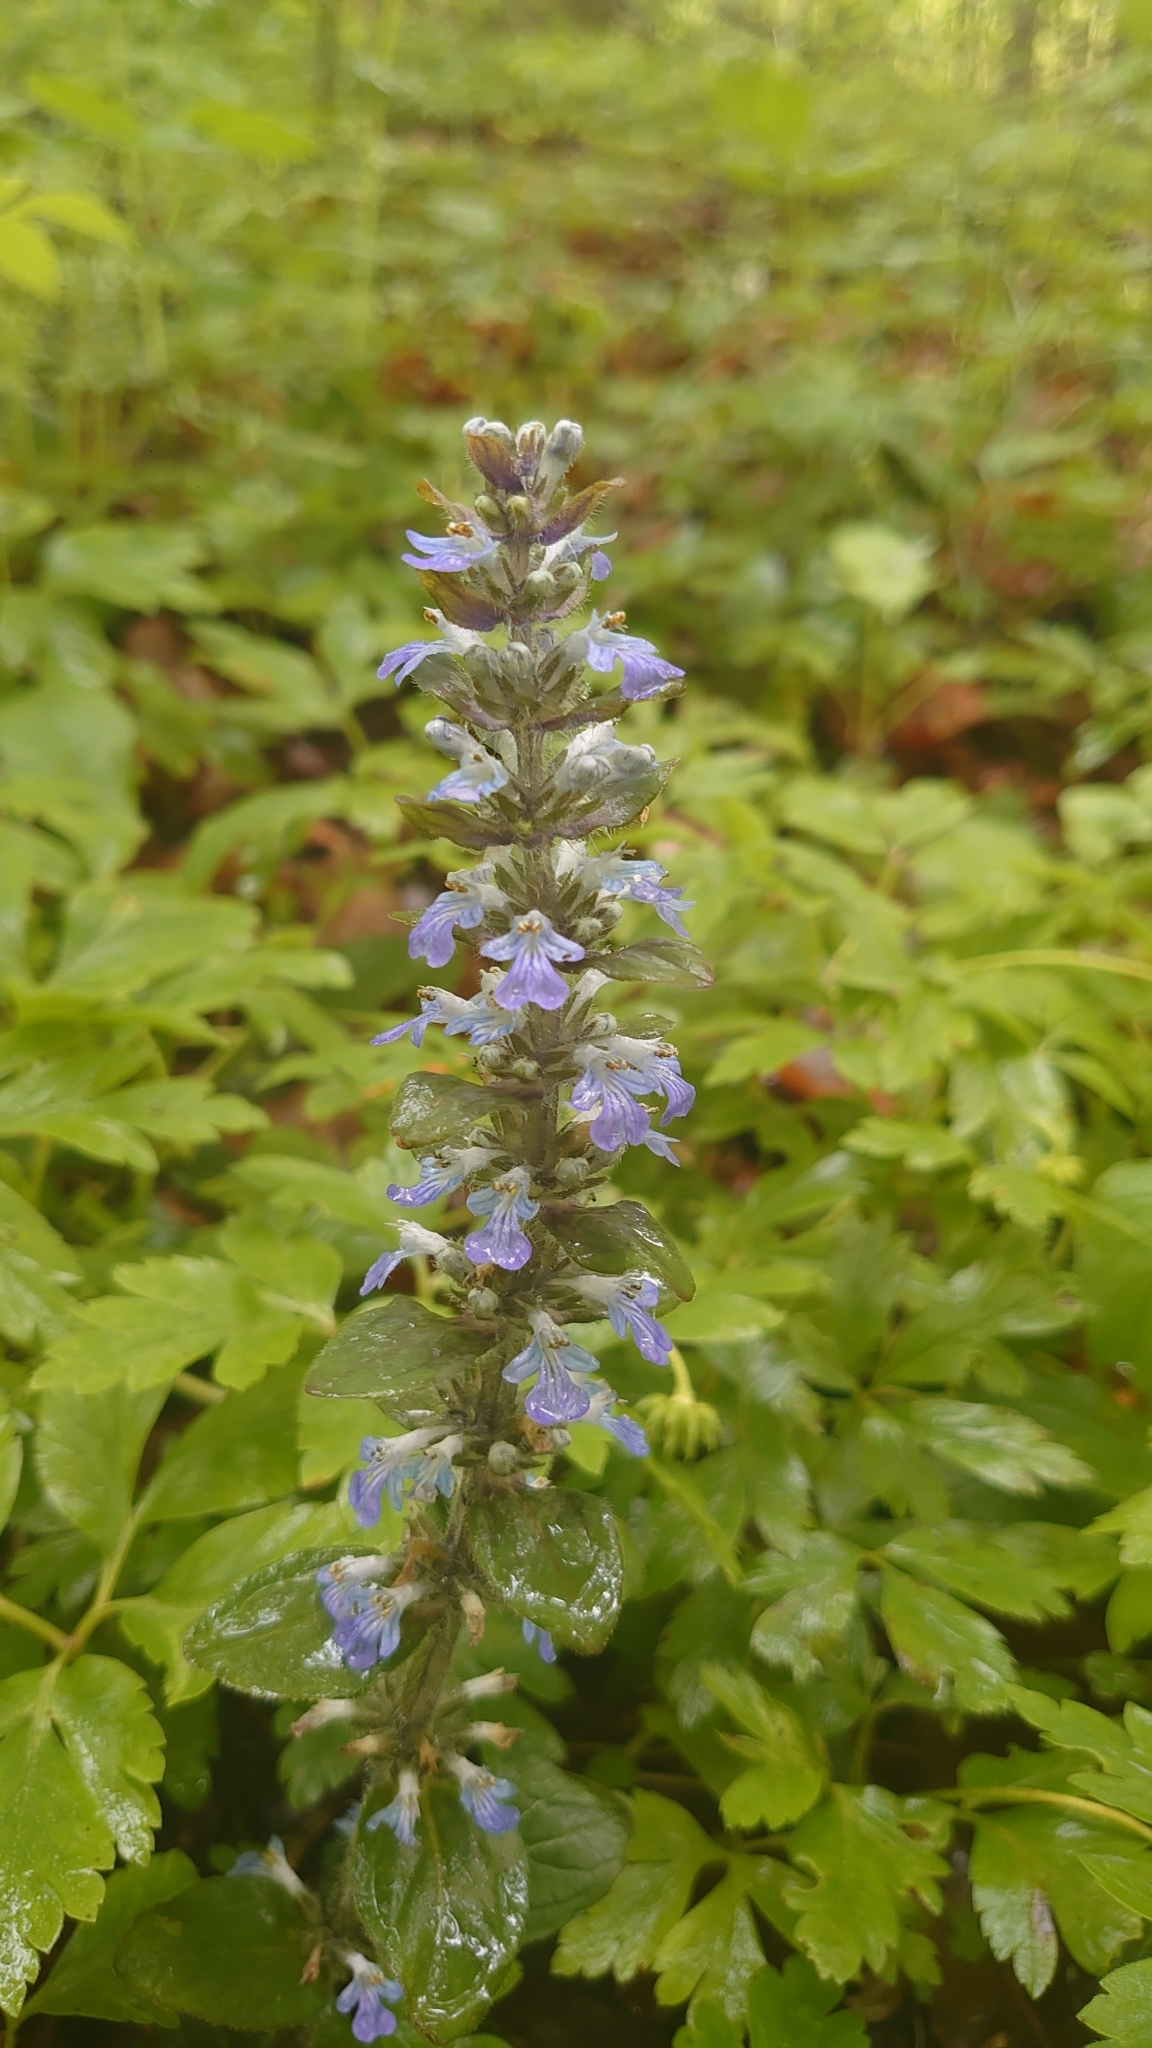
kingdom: Plantae
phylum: Tracheophyta
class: Magnoliopsida
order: Lamiales
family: Lamiaceae
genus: Ajuga
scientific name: Ajuga reptans
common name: Bugle
